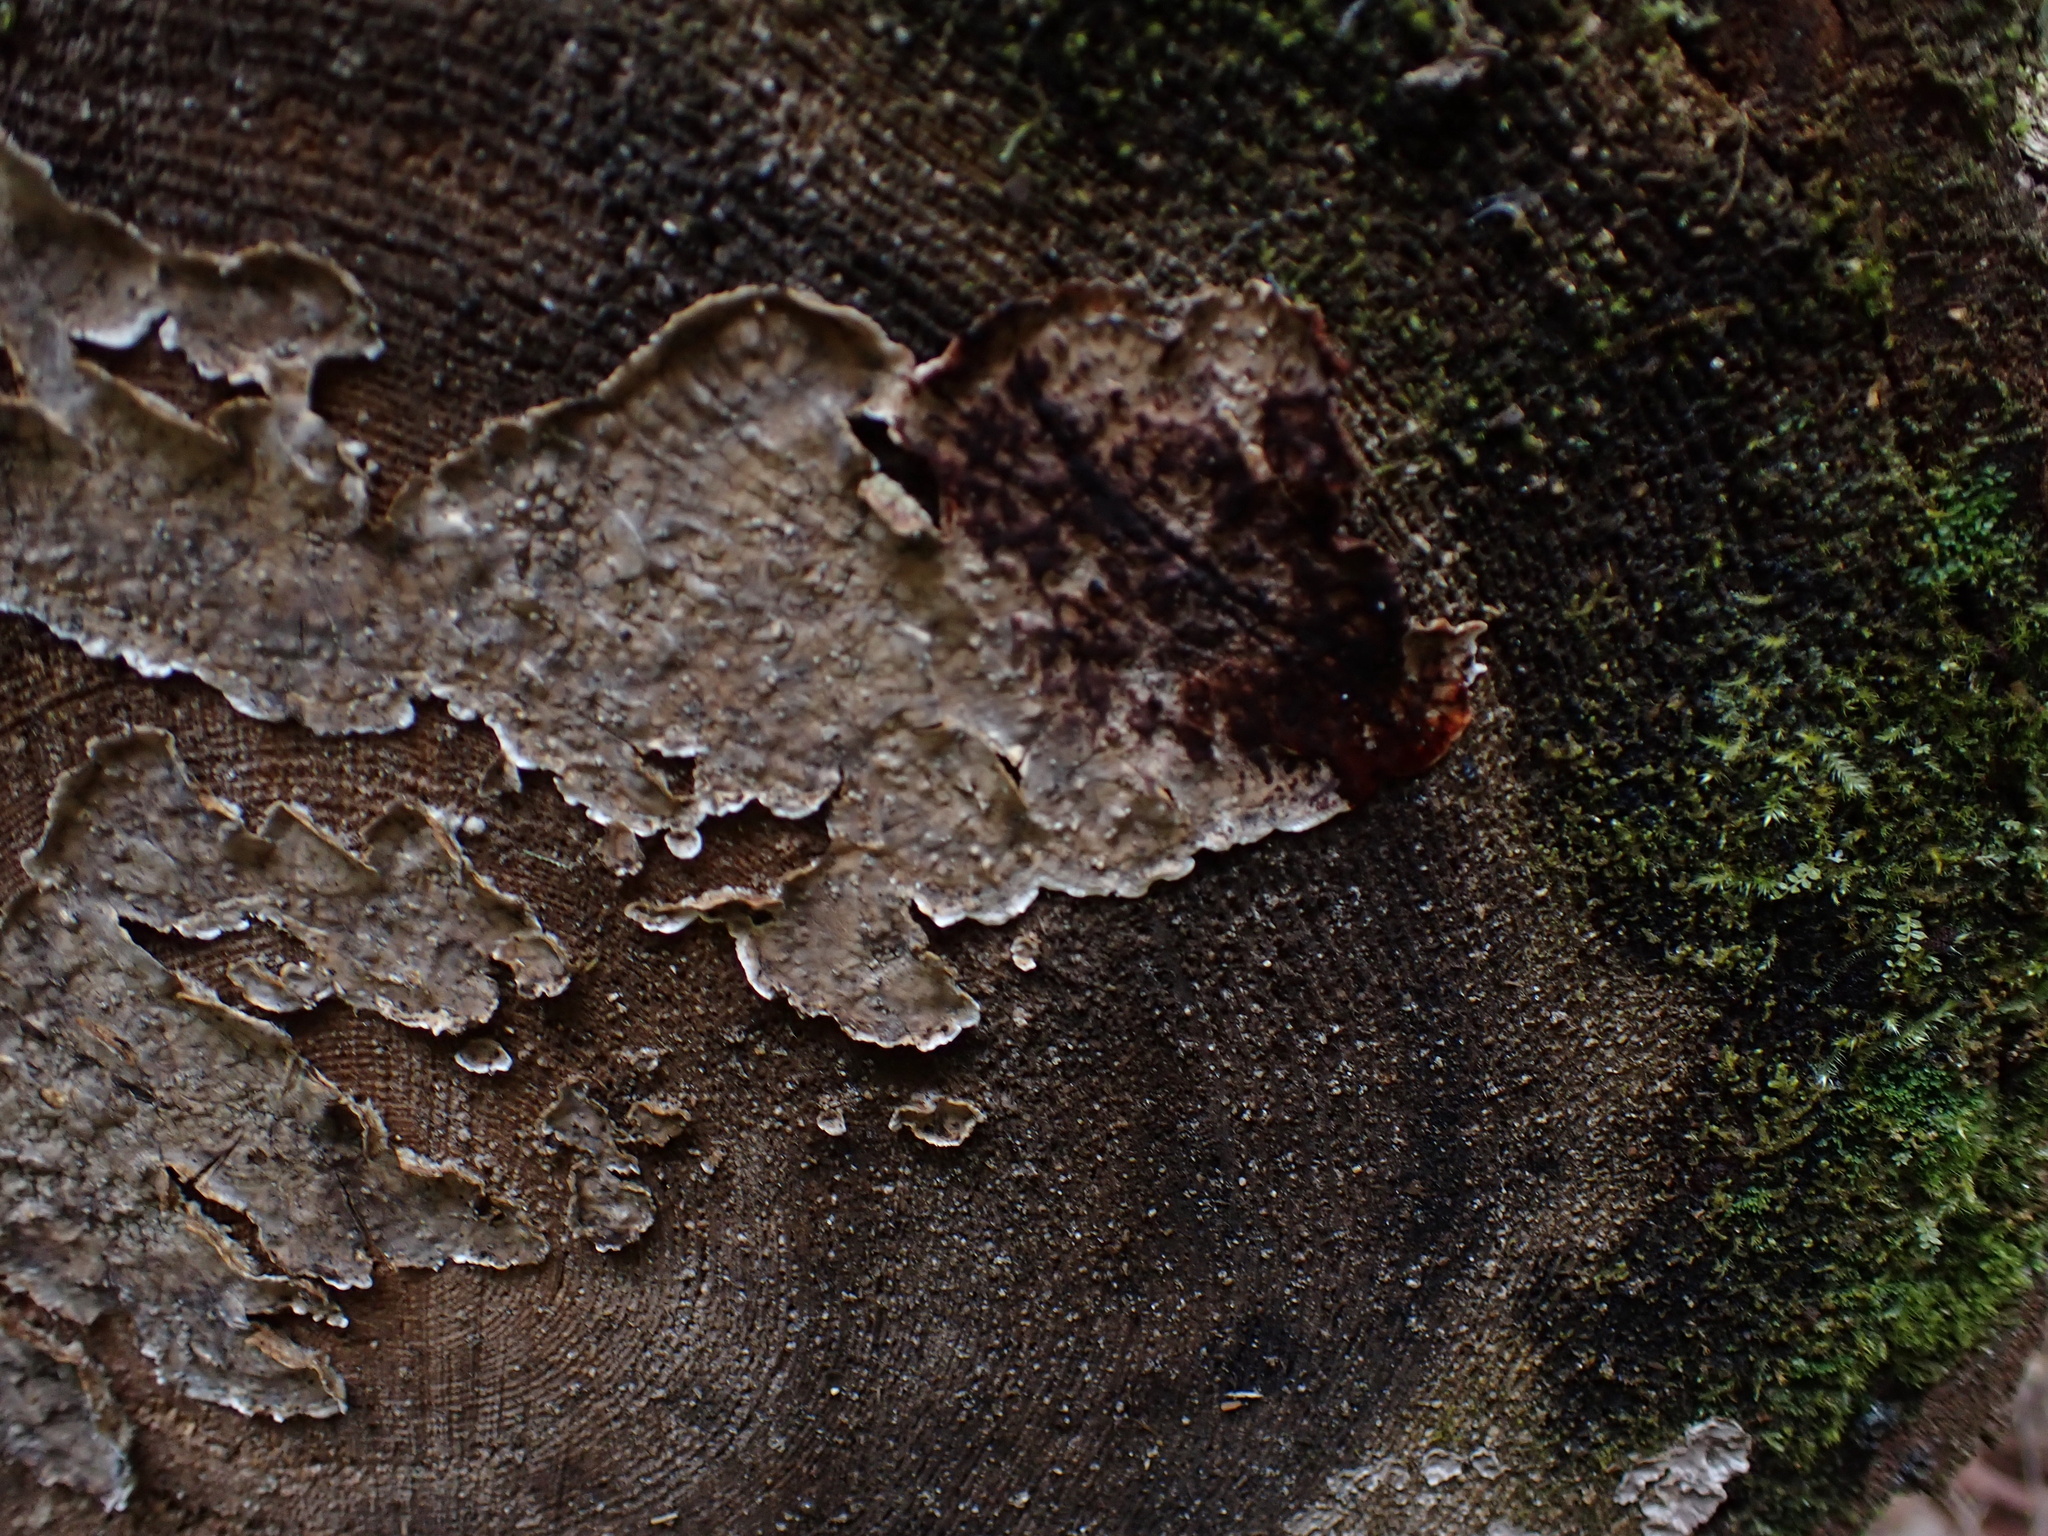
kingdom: Fungi
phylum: Basidiomycota
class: Agaricomycetes
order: Russulales
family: Stereaceae
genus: Stereum
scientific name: Stereum sanguinolentum
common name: Bleeding conifer crust
